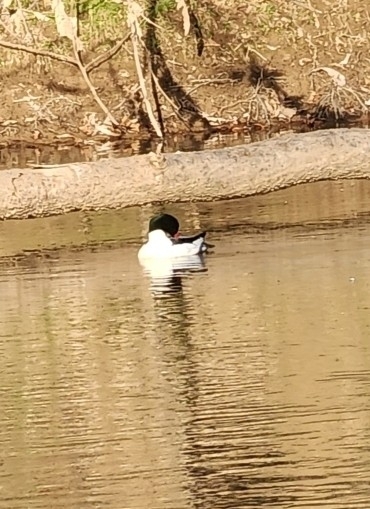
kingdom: Animalia
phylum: Chordata
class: Aves
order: Anseriformes
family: Anatidae
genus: Mergus
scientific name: Mergus merganser
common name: Common merganser
